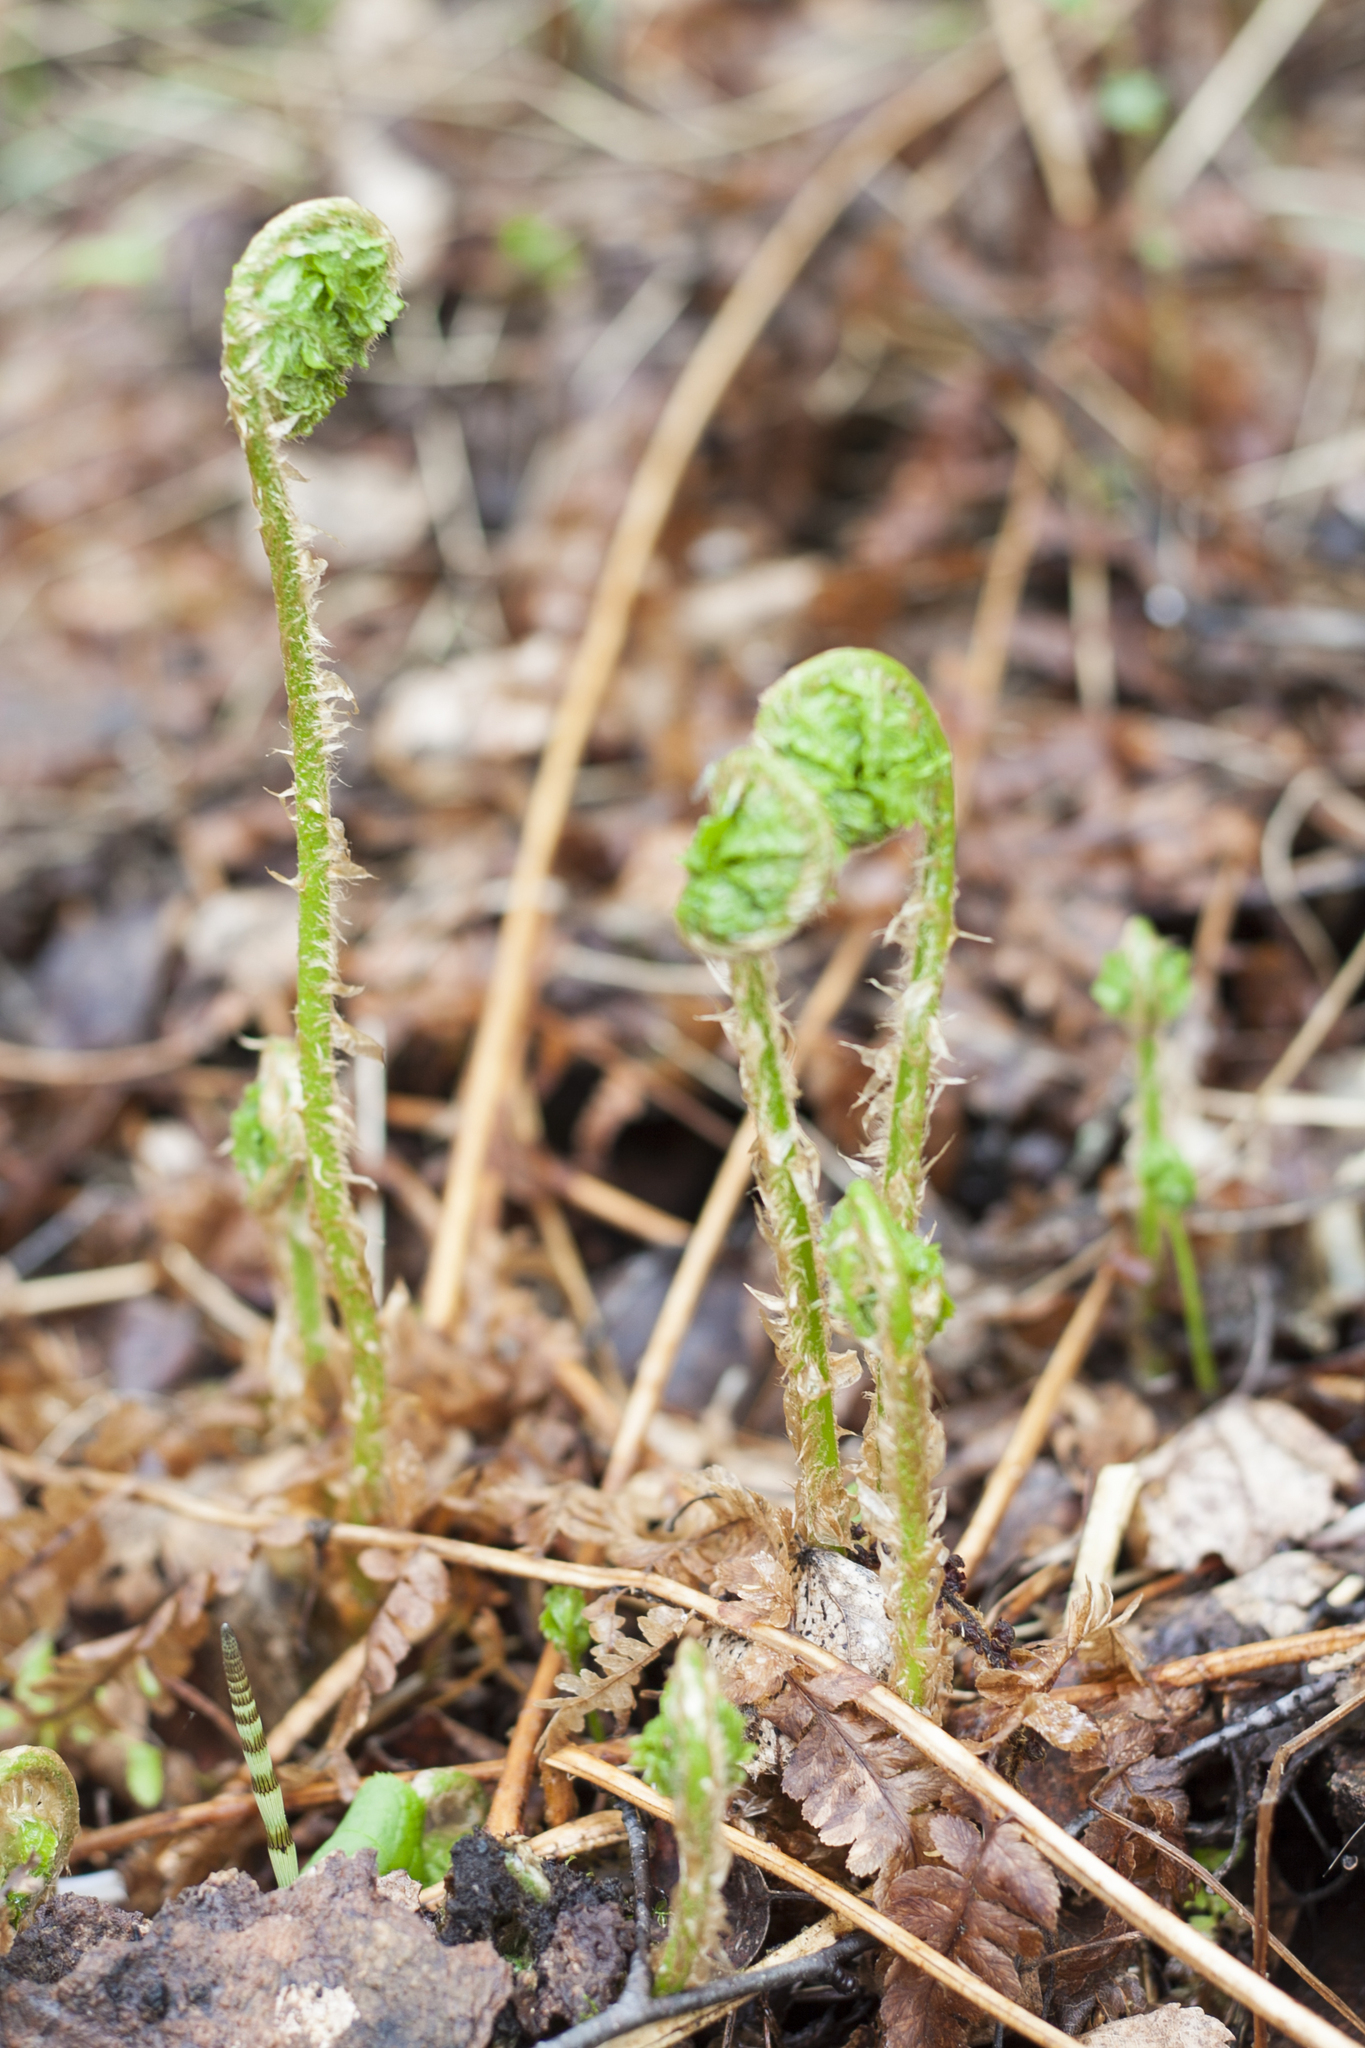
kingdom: Plantae
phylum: Tracheophyta
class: Polypodiopsida
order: Polypodiales
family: Dryopteridaceae
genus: Dryopteris
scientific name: Dryopteris filix-mas
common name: Male fern
